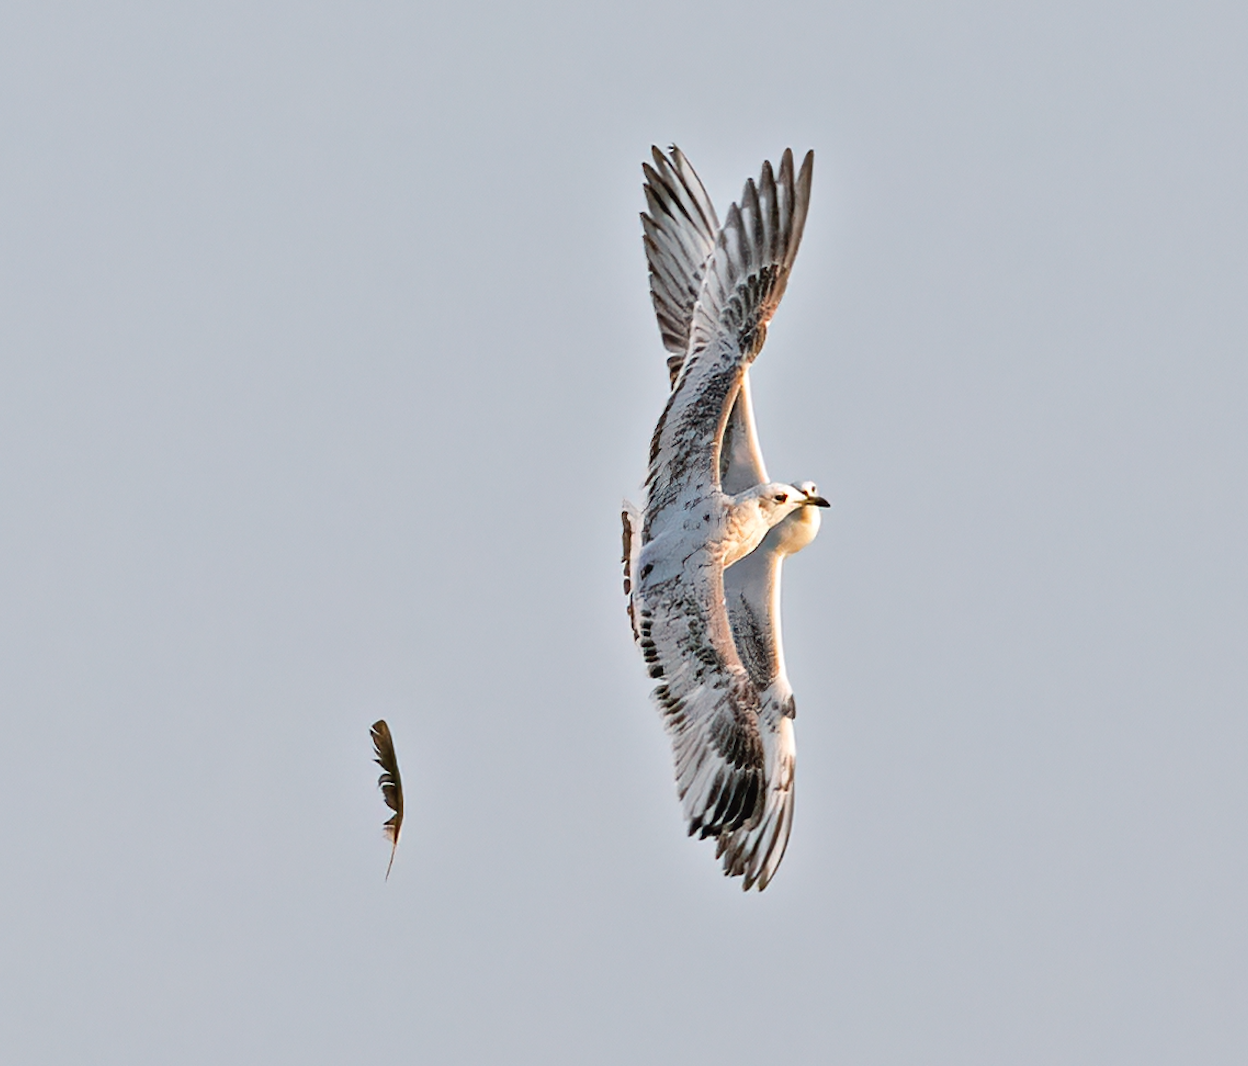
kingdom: Animalia
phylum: Chordata
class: Aves
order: Charadriiformes
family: Laridae
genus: Ichthyaetus
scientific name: Ichthyaetus melanocephalus
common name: Mediterranean gull
